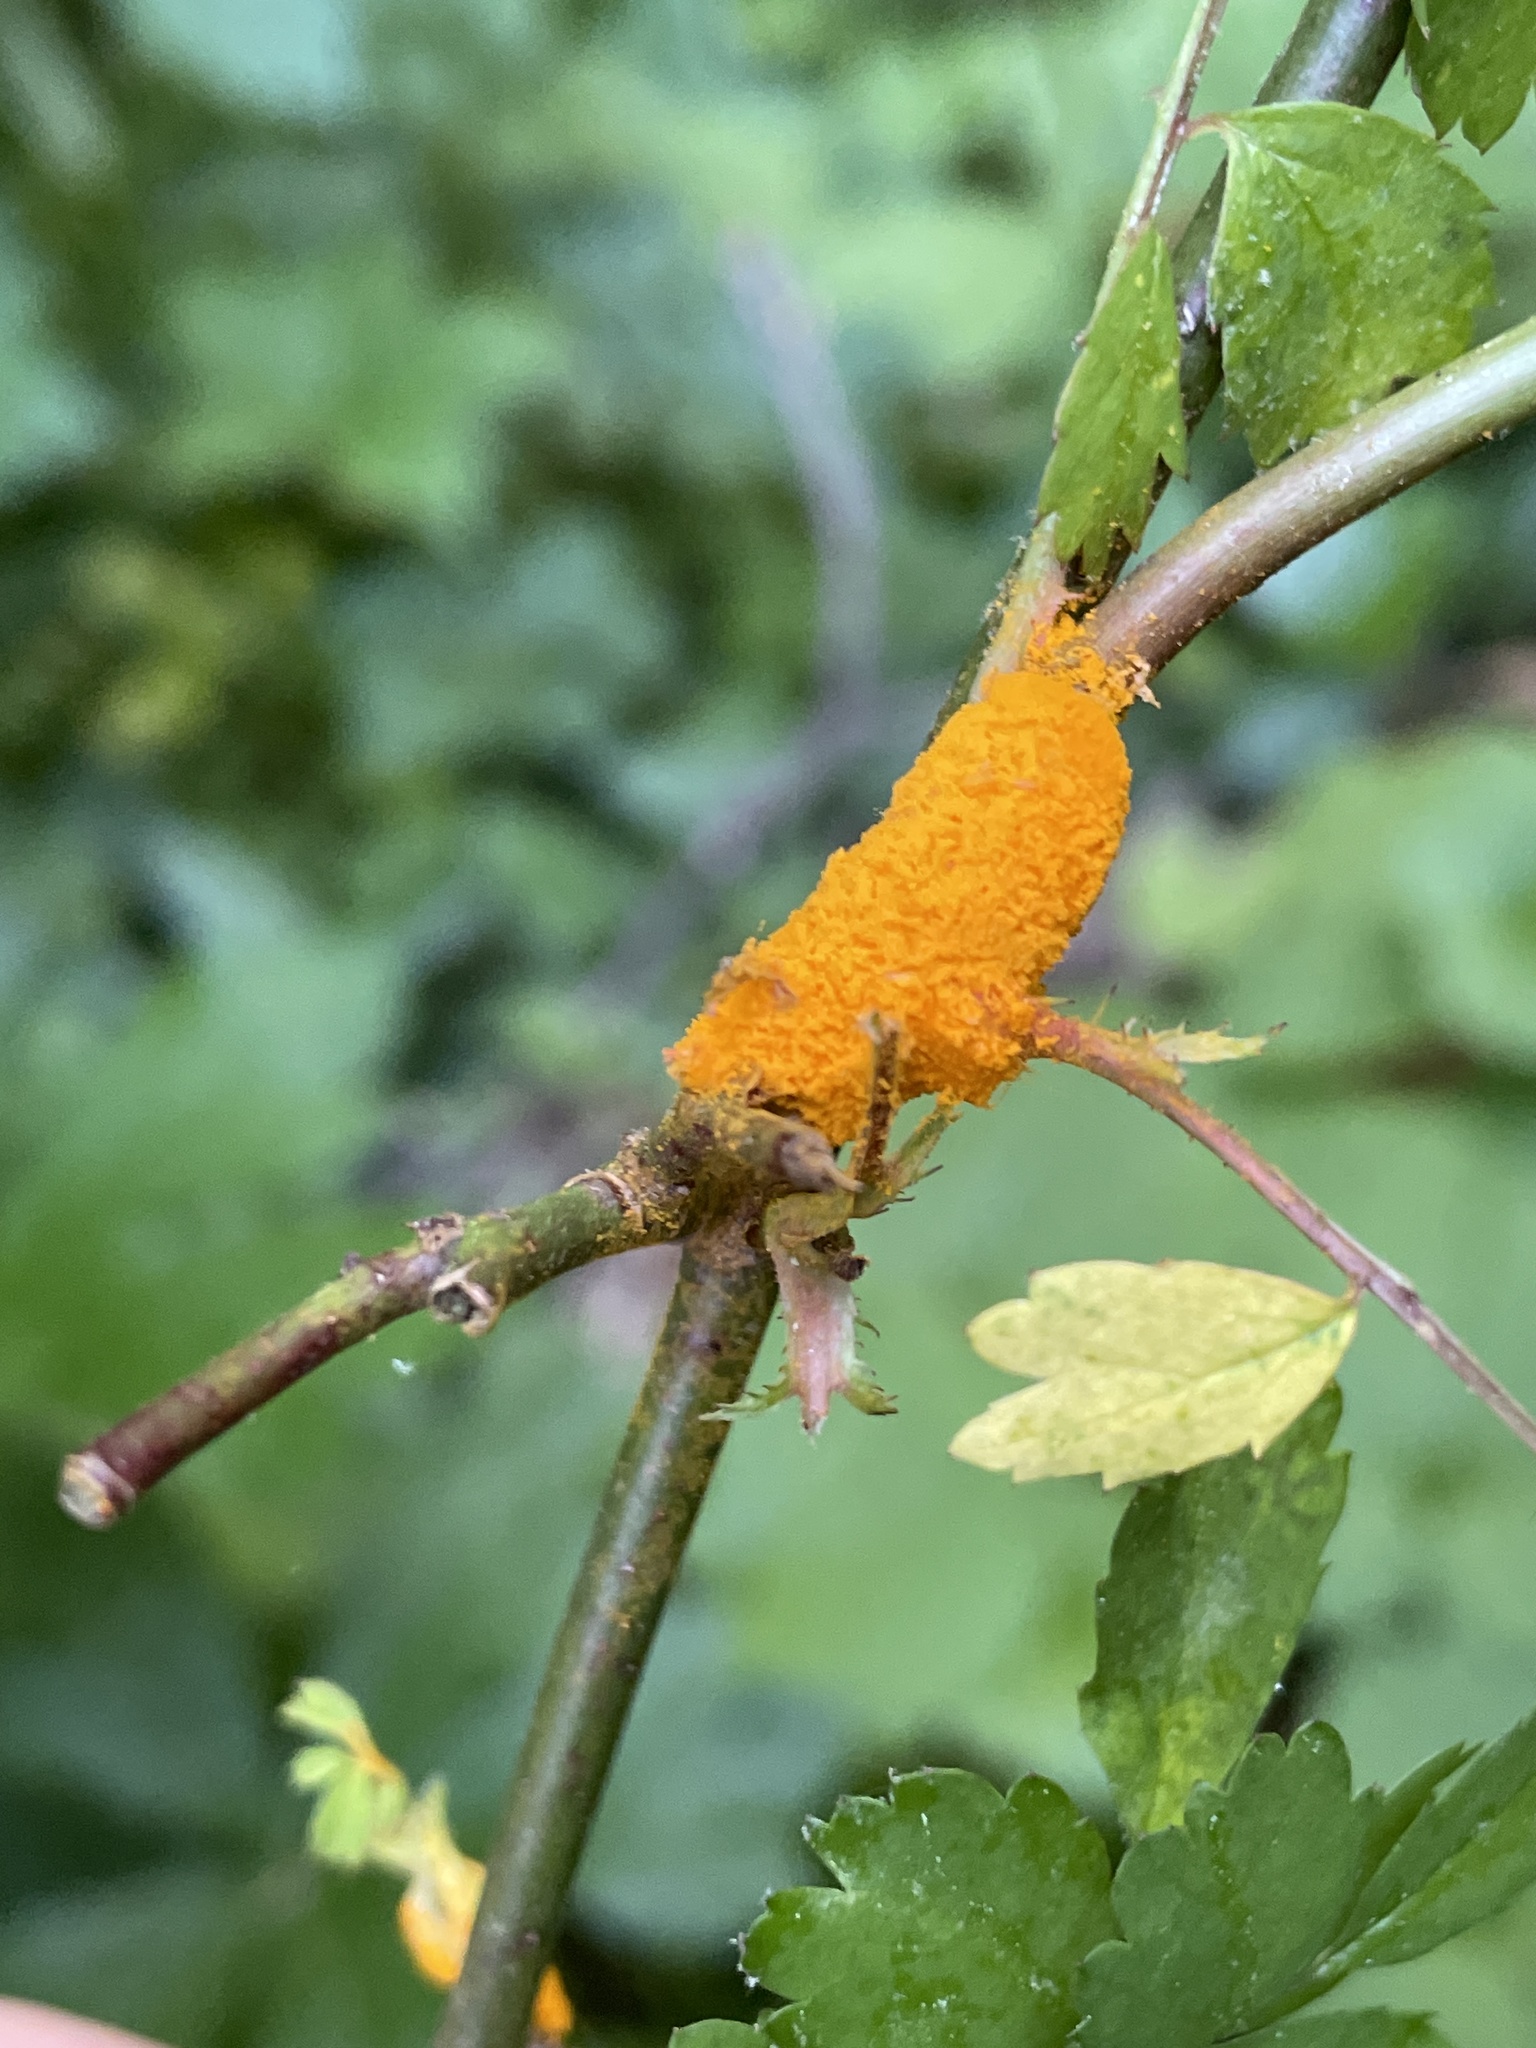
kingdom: Fungi
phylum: Basidiomycota
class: Pucciniomycetes
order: Pucciniales
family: Phragmidiaceae
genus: Phragmidium
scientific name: Phragmidium rosae-multiflorae
